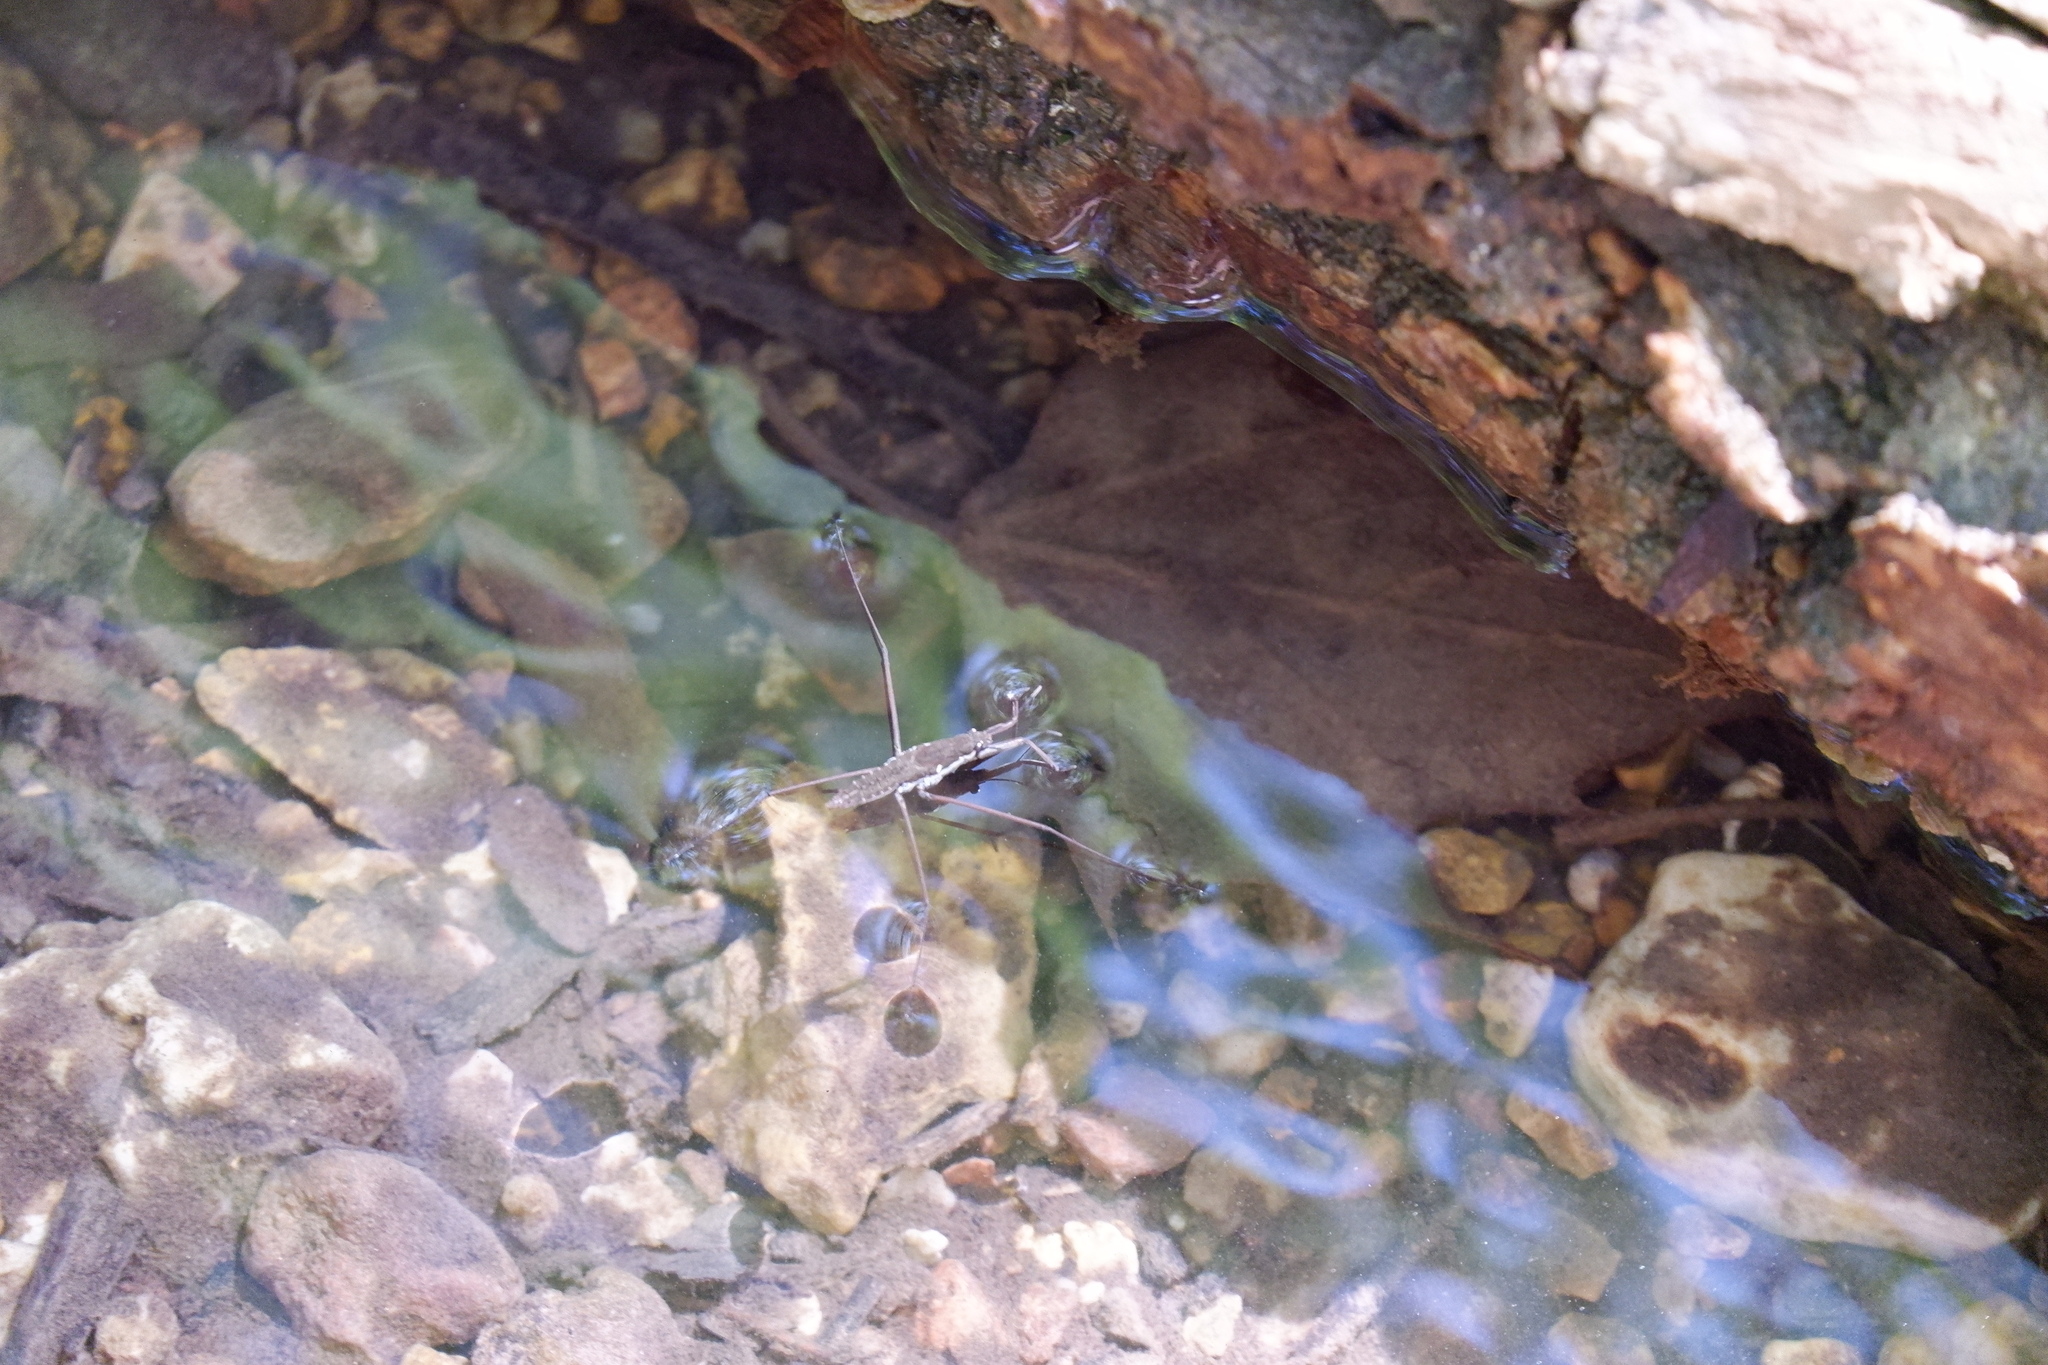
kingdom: Animalia
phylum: Arthropoda
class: Insecta
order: Hemiptera
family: Gerridae
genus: Aquarius
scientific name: Aquarius remigis
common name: Common water strider
